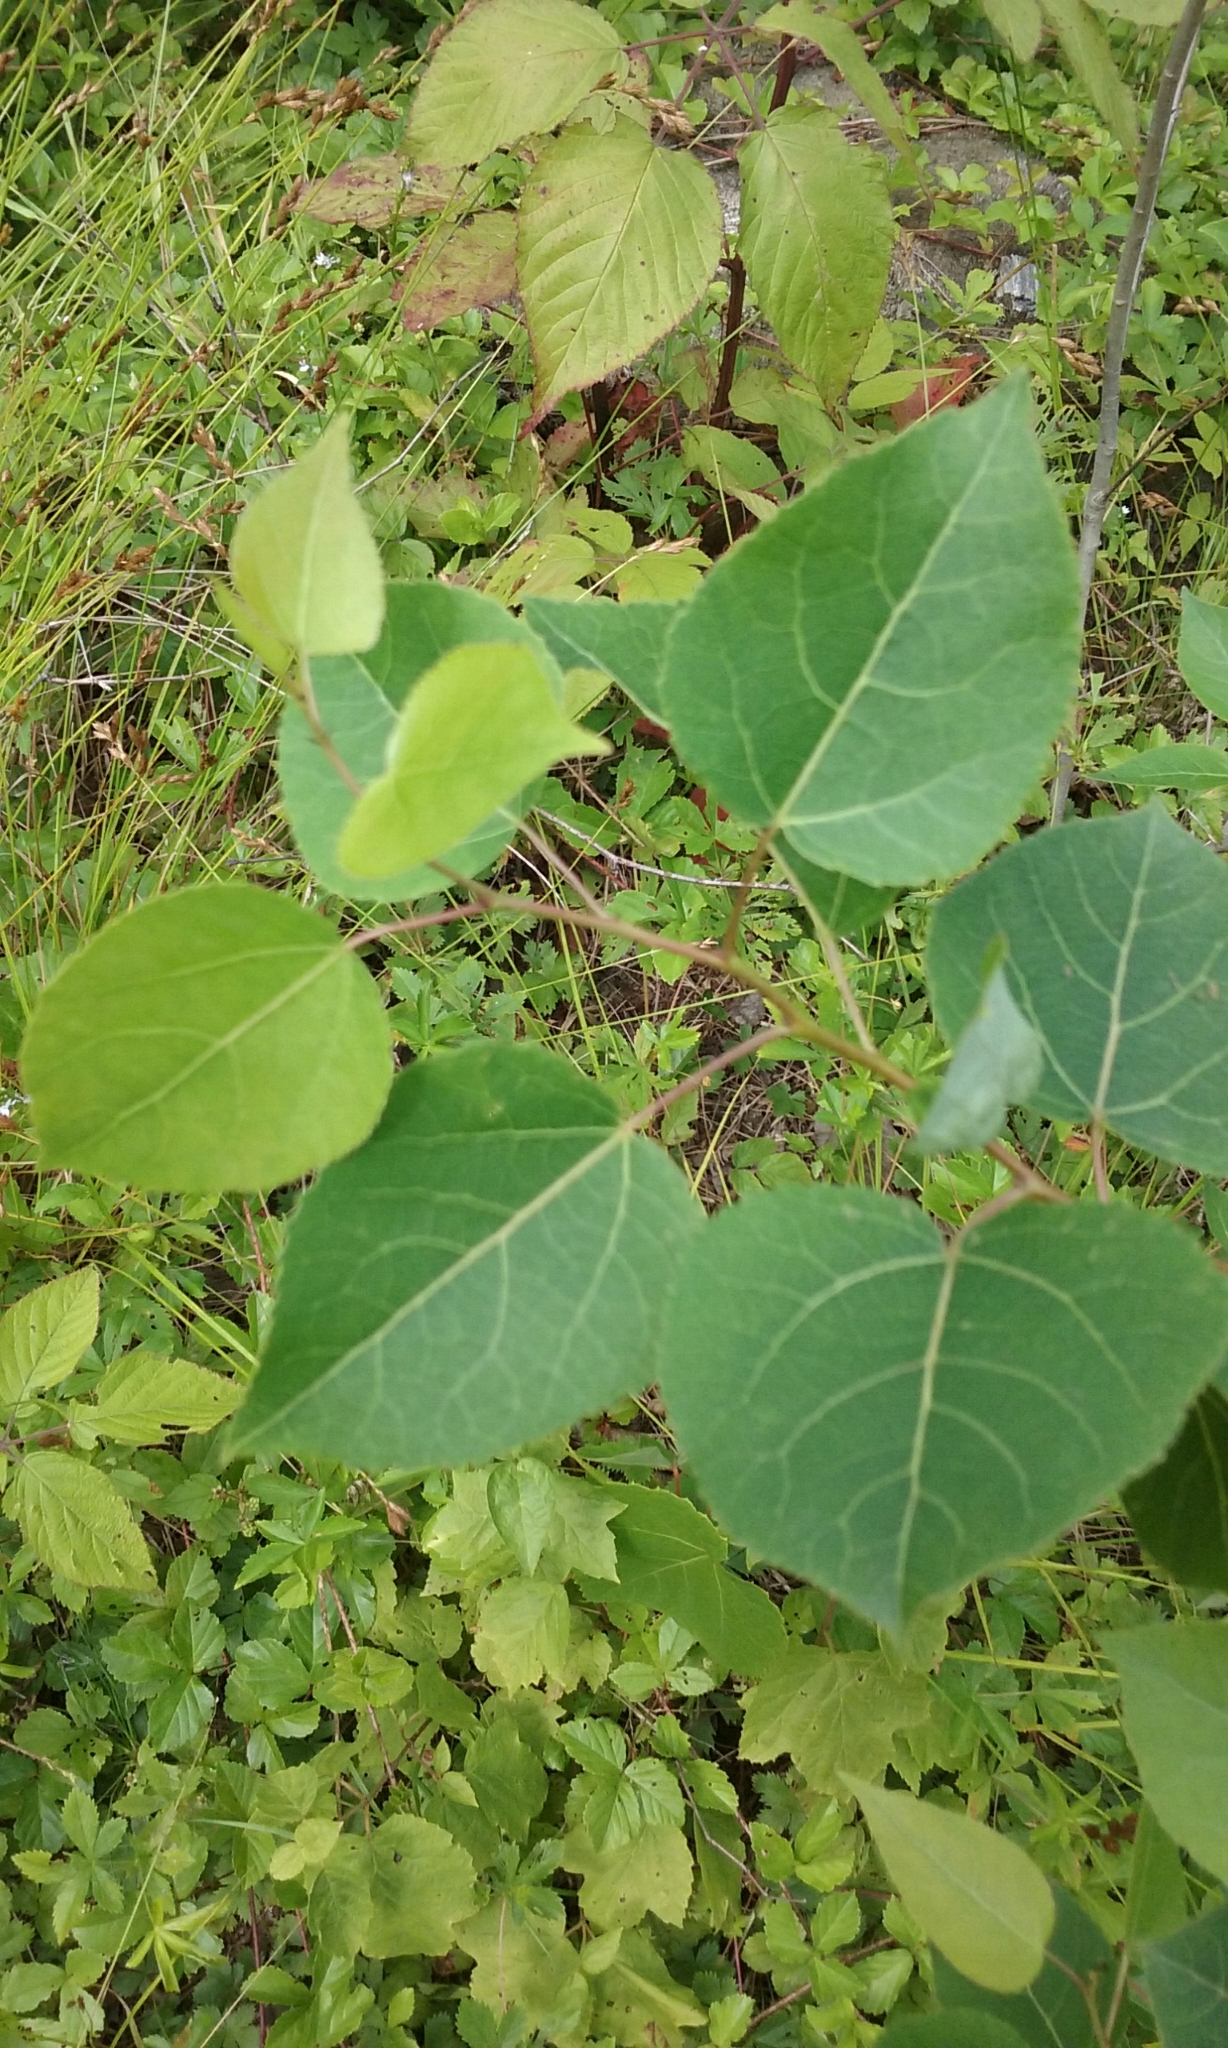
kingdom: Plantae
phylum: Tracheophyta
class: Magnoliopsida
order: Malpighiales
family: Salicaceae
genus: Populus
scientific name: Populus tremuloides
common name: Quaking aspen
